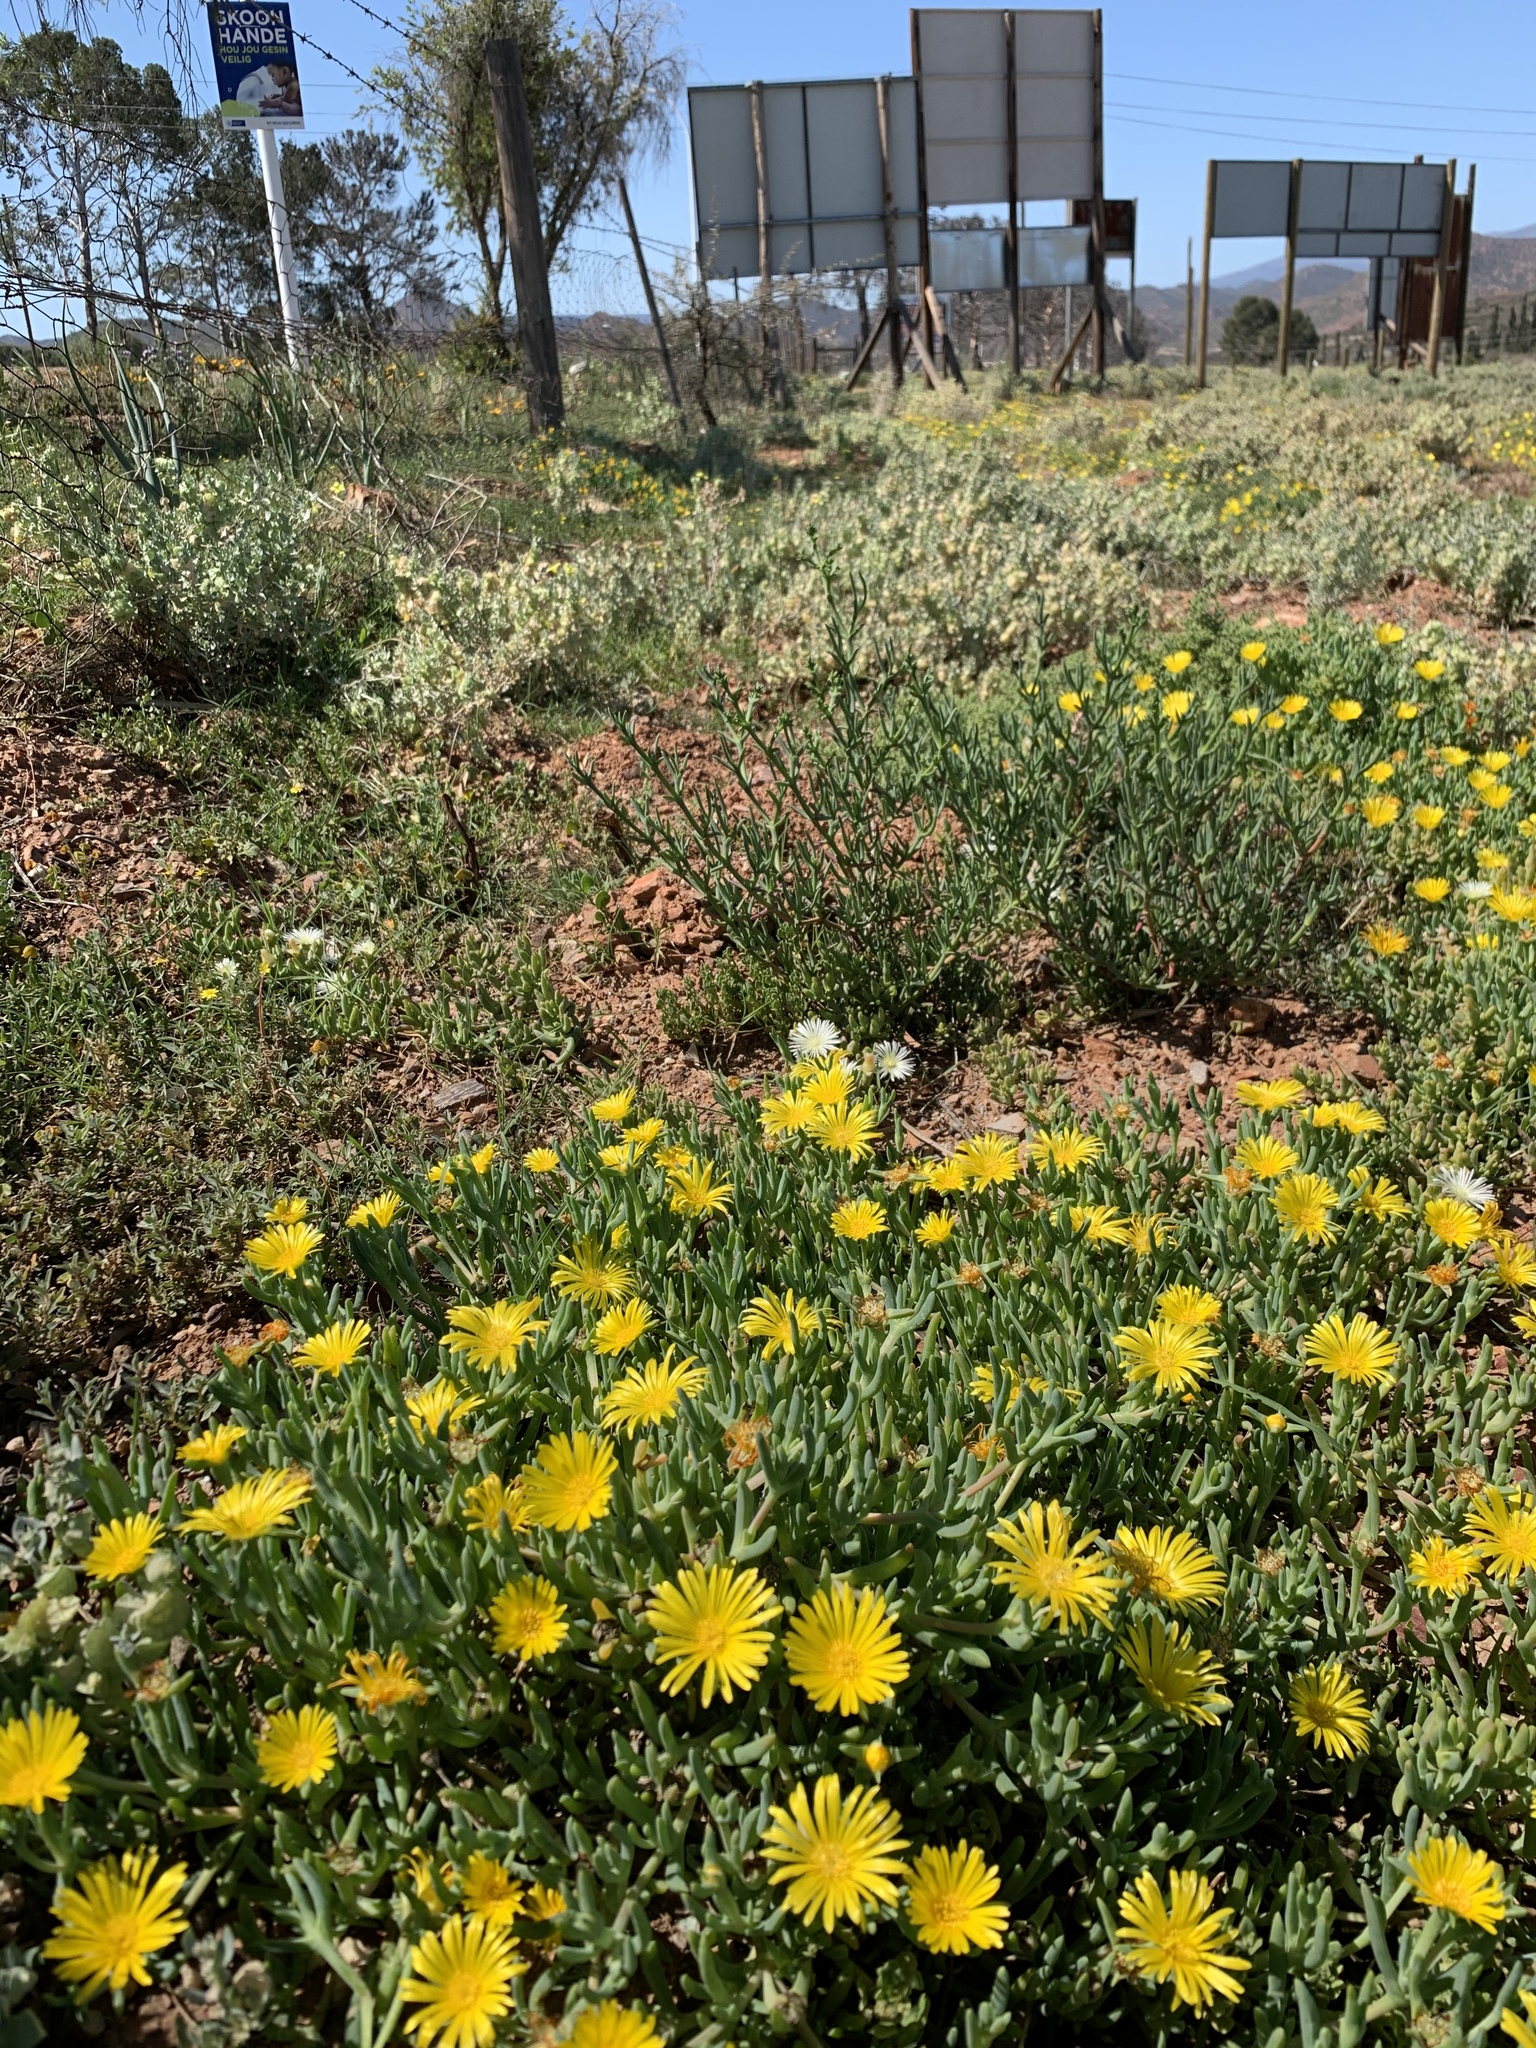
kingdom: Plantae
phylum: Tracheophyta
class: Magnoliopsida
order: Caryophyllales
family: Aizoaceae
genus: Malephora
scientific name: Malephora latipetala
